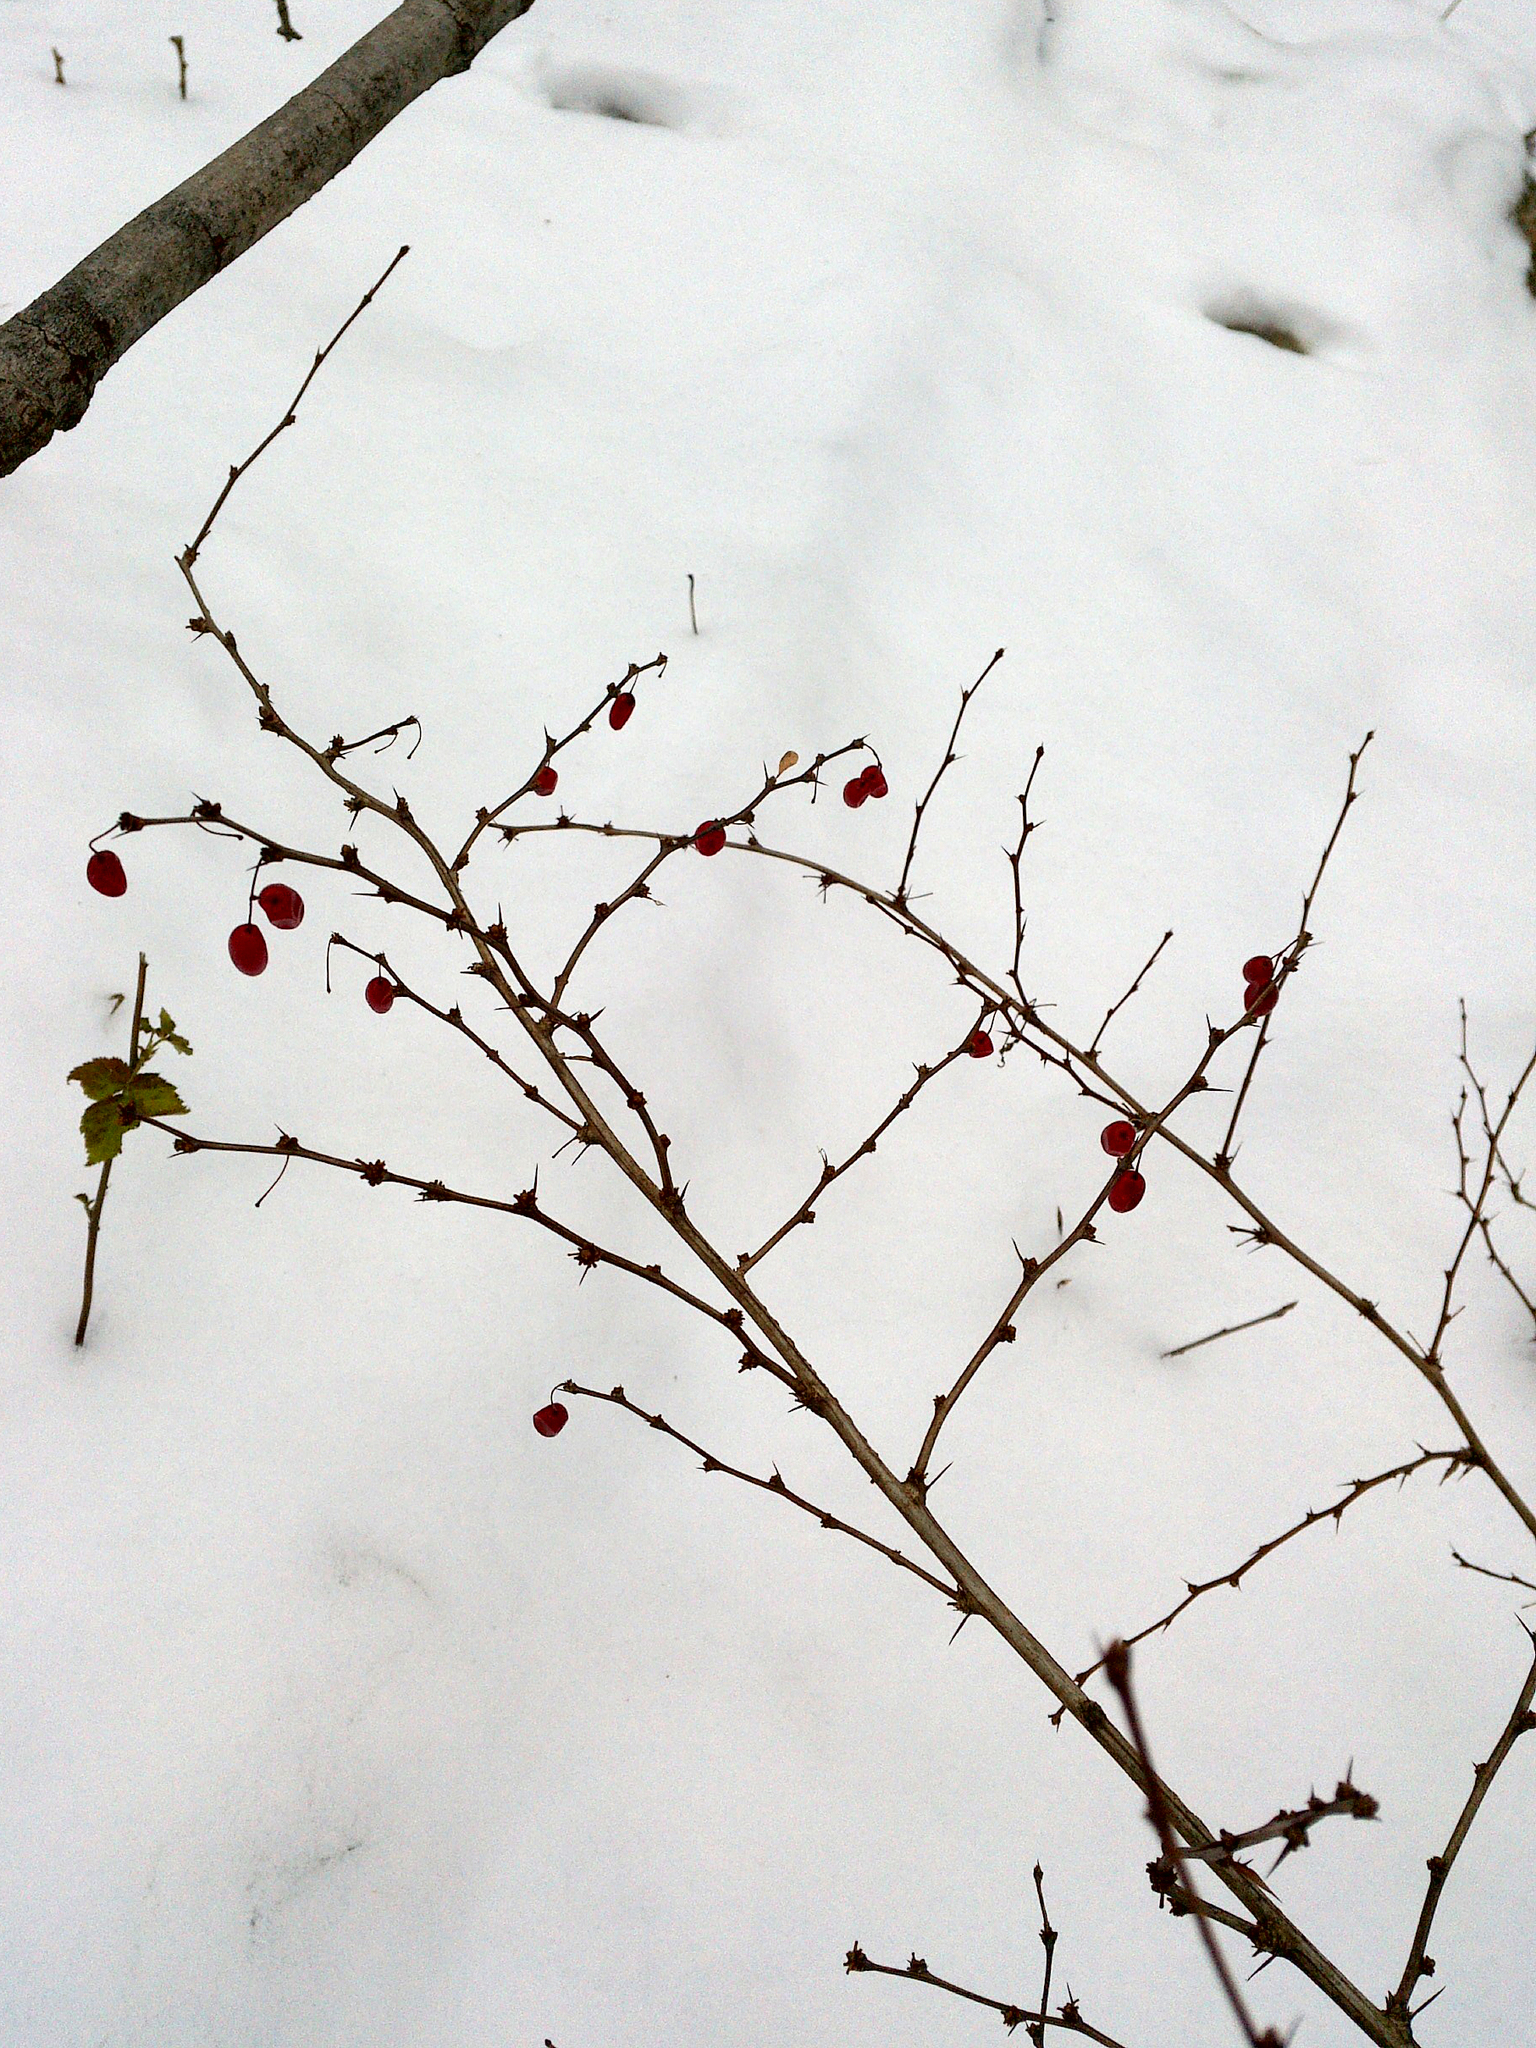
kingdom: Plantae
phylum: Tracheophyta
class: Magnoliopsida
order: Ranunculales
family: Berberidaceae
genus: Berberis
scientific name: Berberis thunbergii
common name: Japanese barberry
